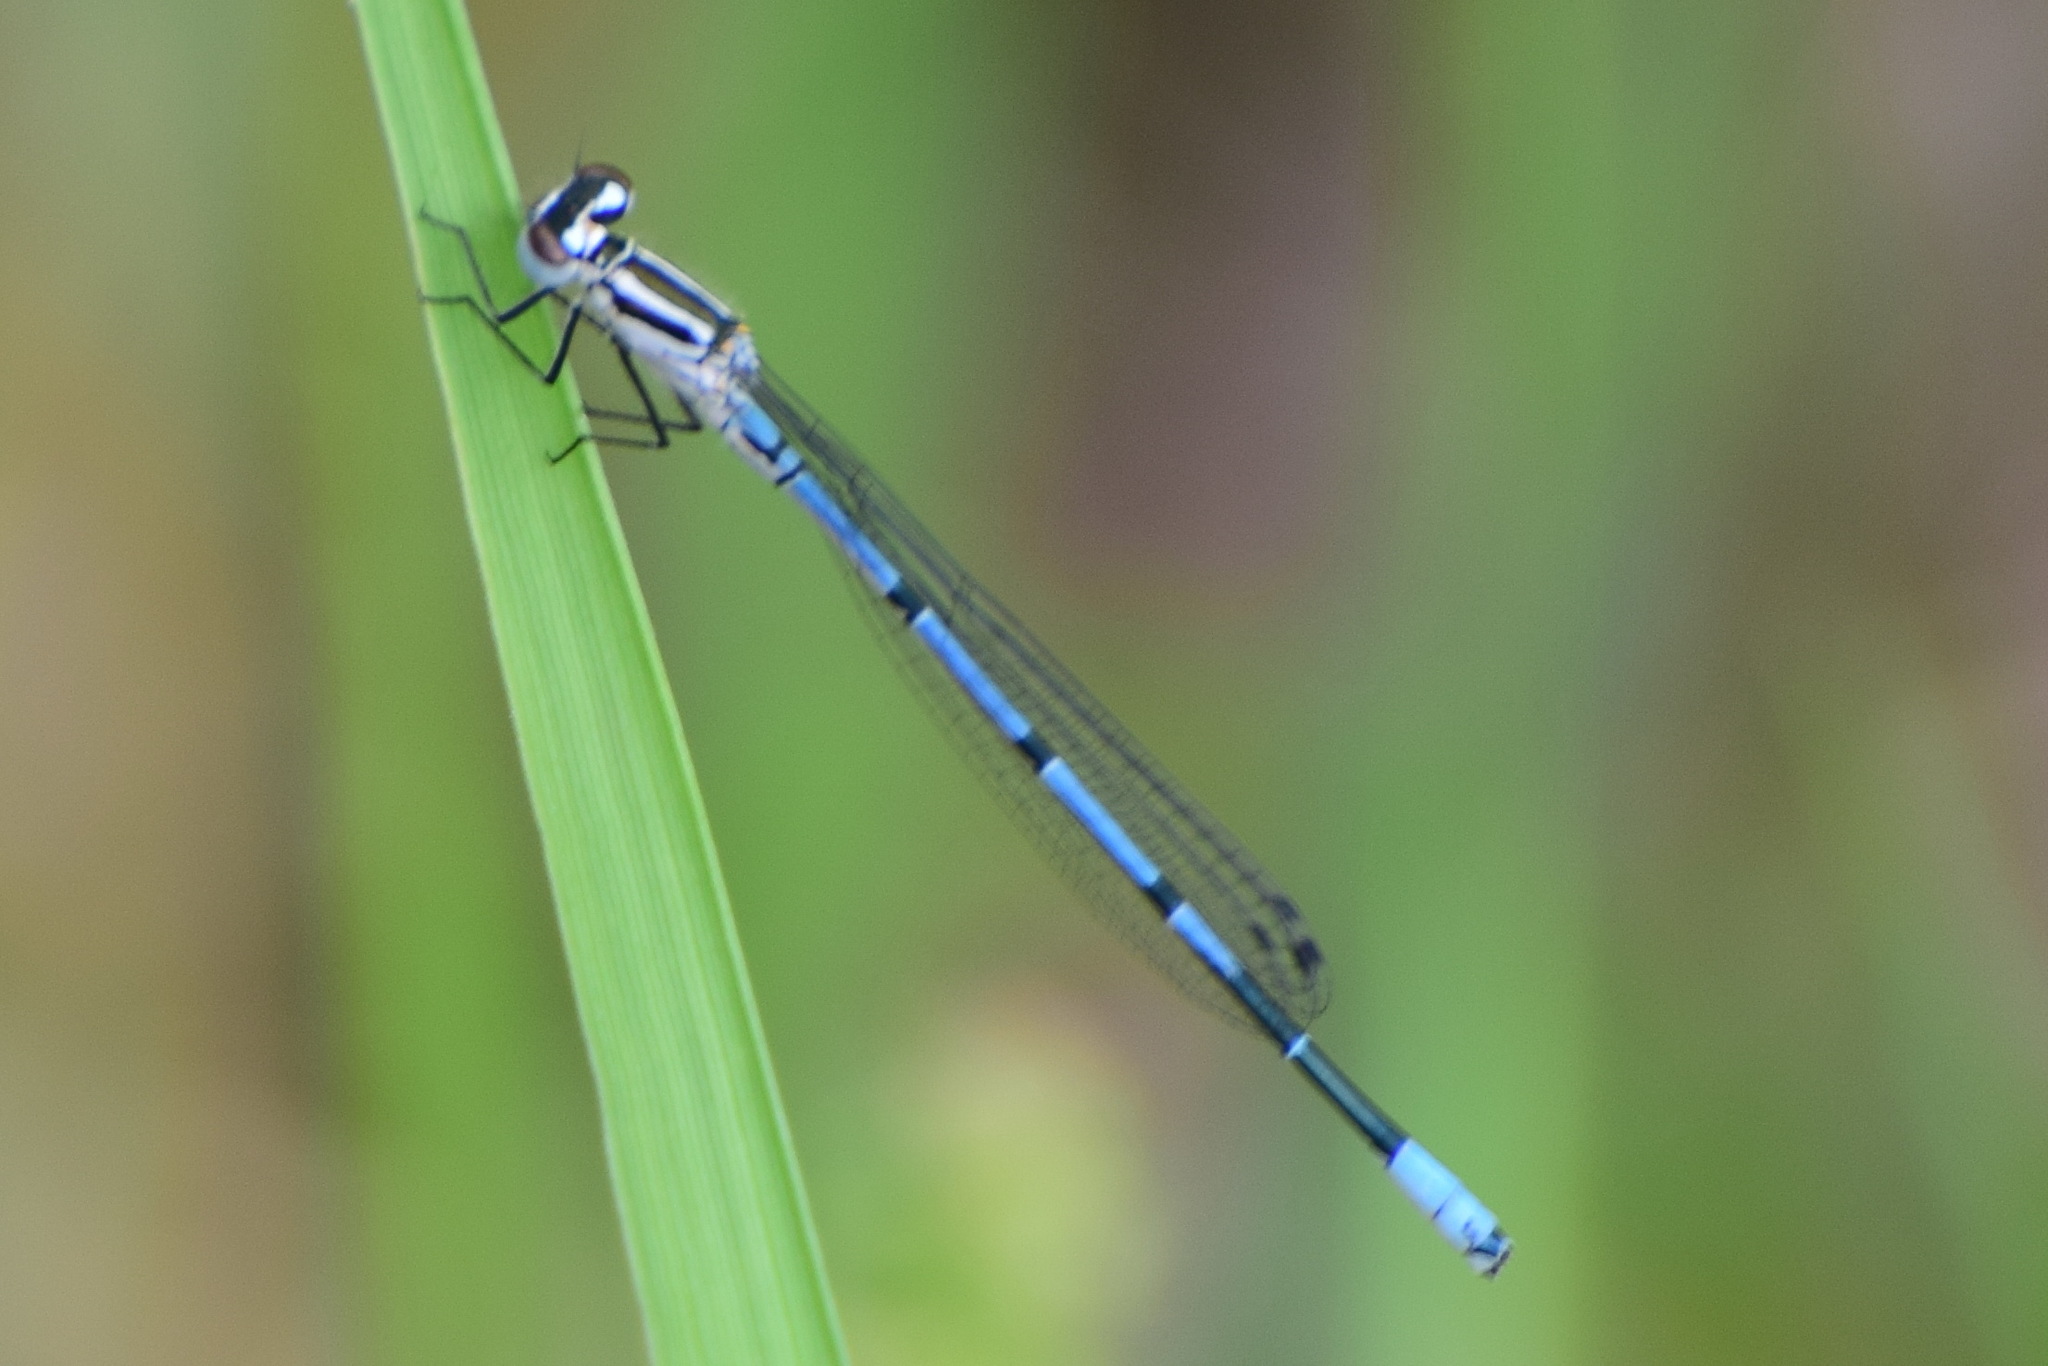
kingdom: Animalia
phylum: Arthropoda
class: Insecta
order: Odonata
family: Coenagrionidae
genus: Coenagrion
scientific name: Coenagrion puella
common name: Azure damselfly
